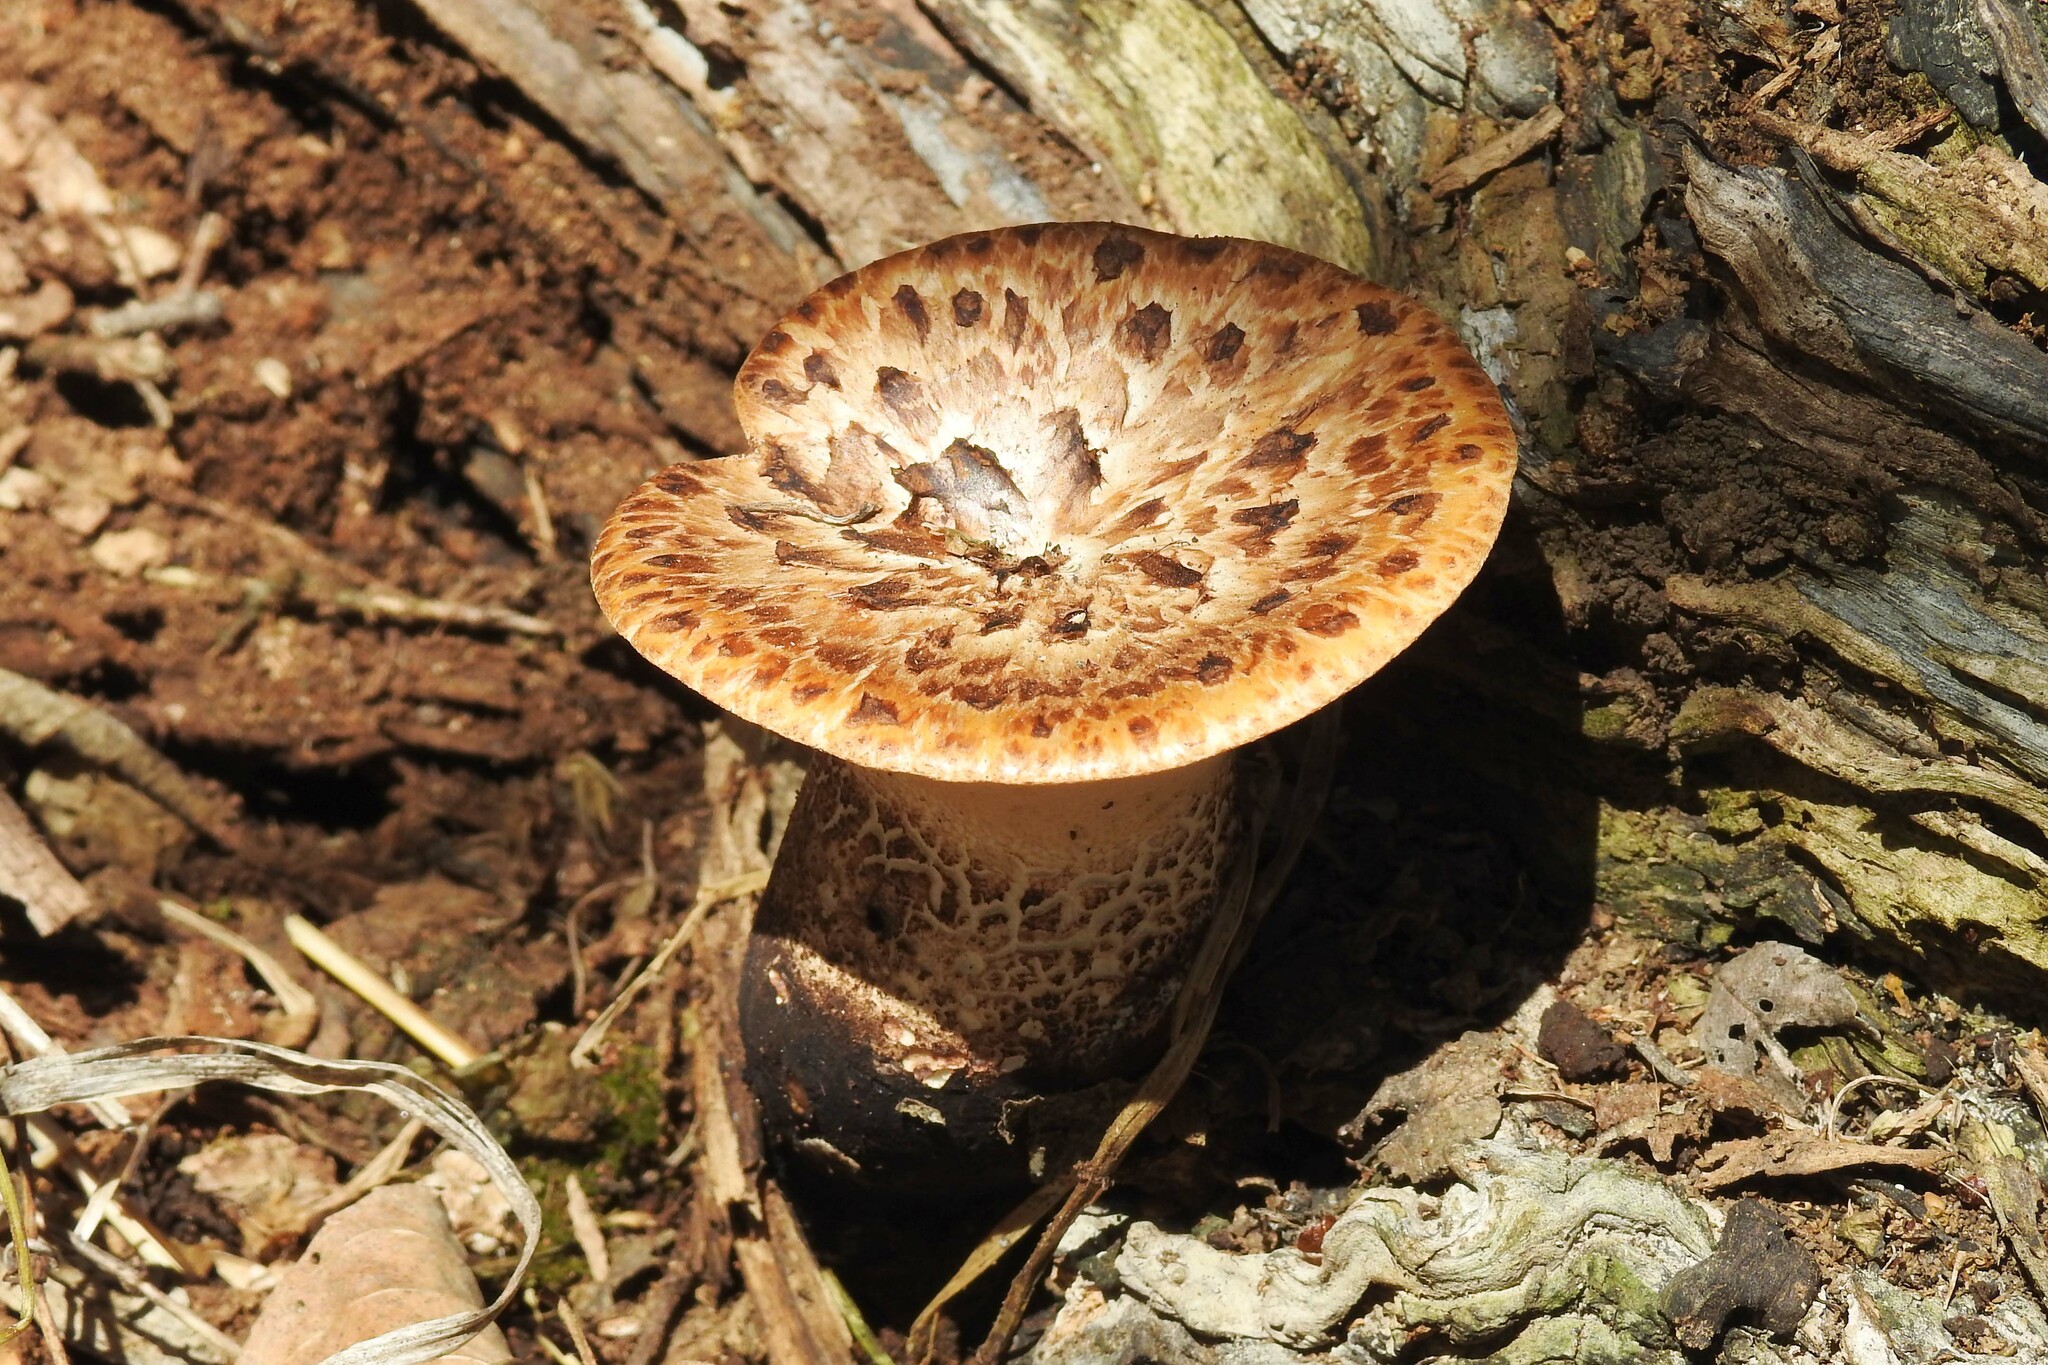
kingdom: Fungi
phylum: Basidiomycota
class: Agaricomycetes
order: Polyporales
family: Polyporaceae
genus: Cerioporus
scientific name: Cerioporus squamosus
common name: Dryad's saddle
